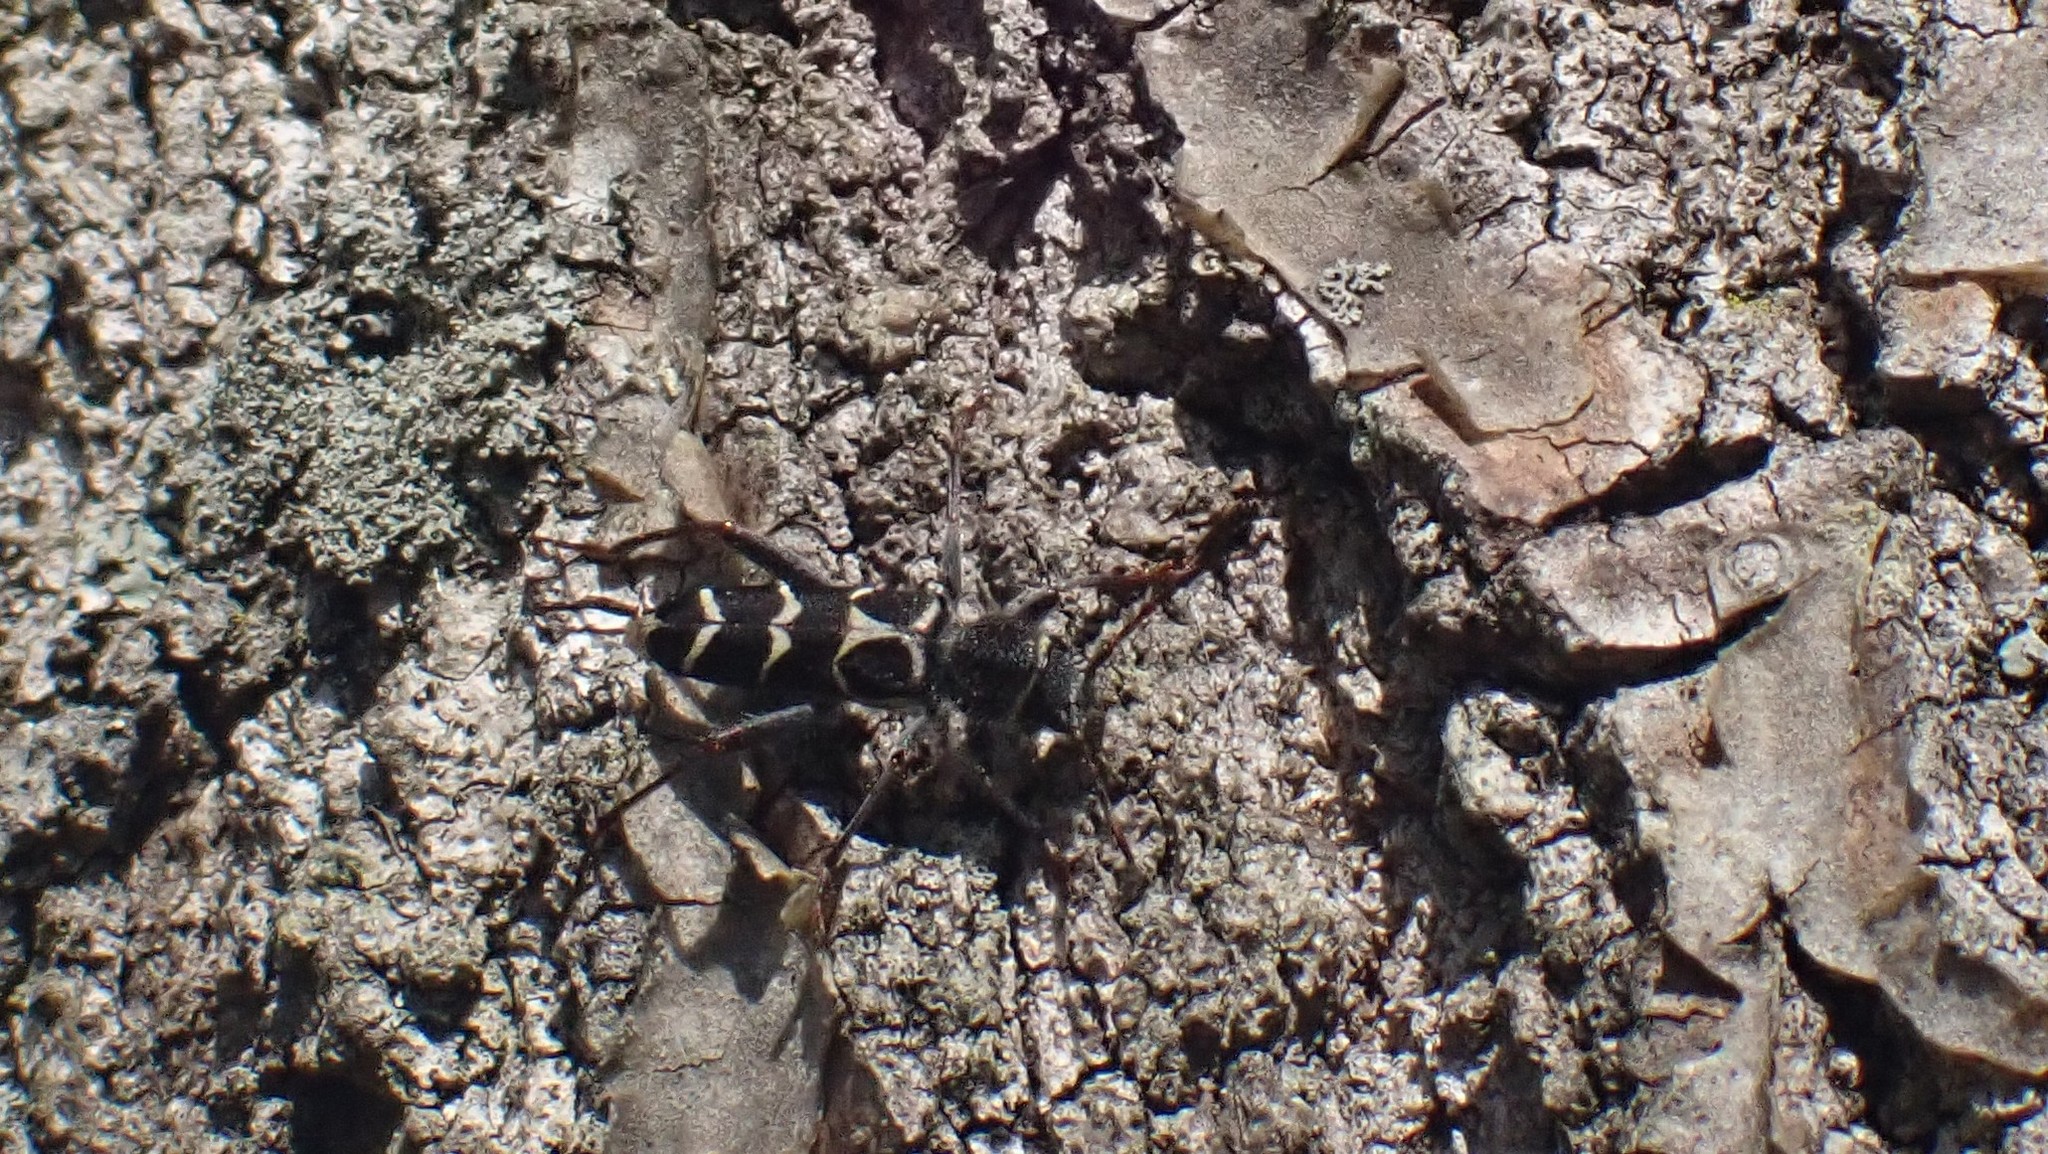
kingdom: Animalia
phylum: Arthropoda
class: Insecta
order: Coleoptera
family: Cerambycidae
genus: Neoclytus
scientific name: Neoclytus caprea
